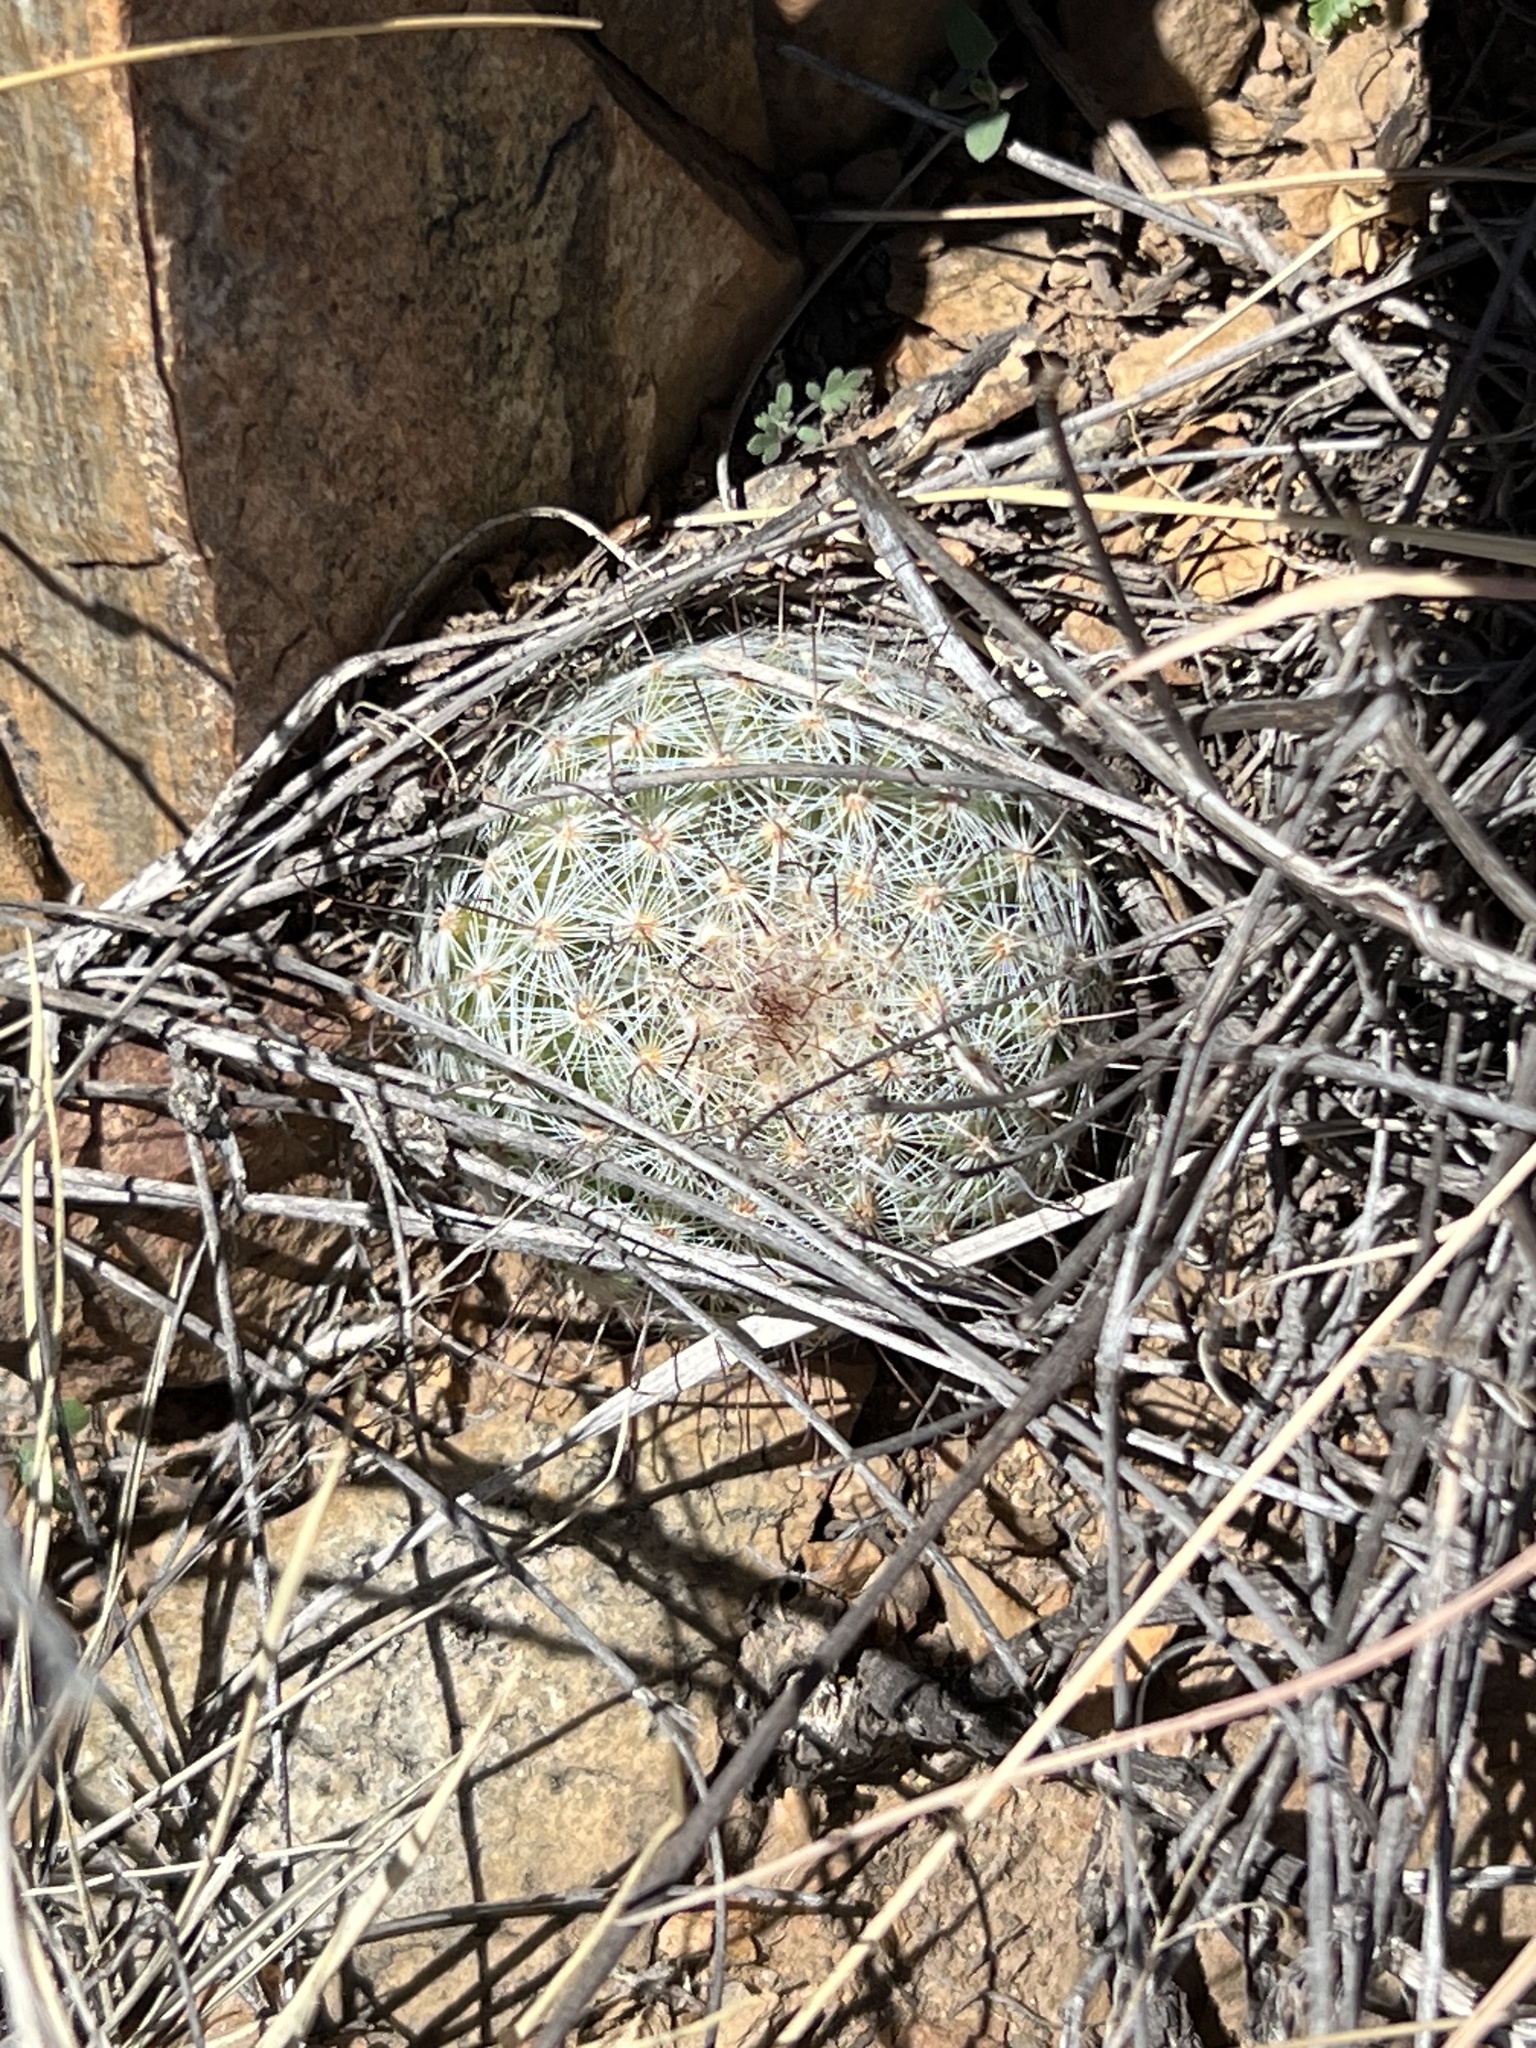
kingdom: Plantae
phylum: Tracheophyta
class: Magnoliopsida
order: Caryophyllales
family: Cactaceae
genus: Cochemiea
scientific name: Cochemiea grahamii
